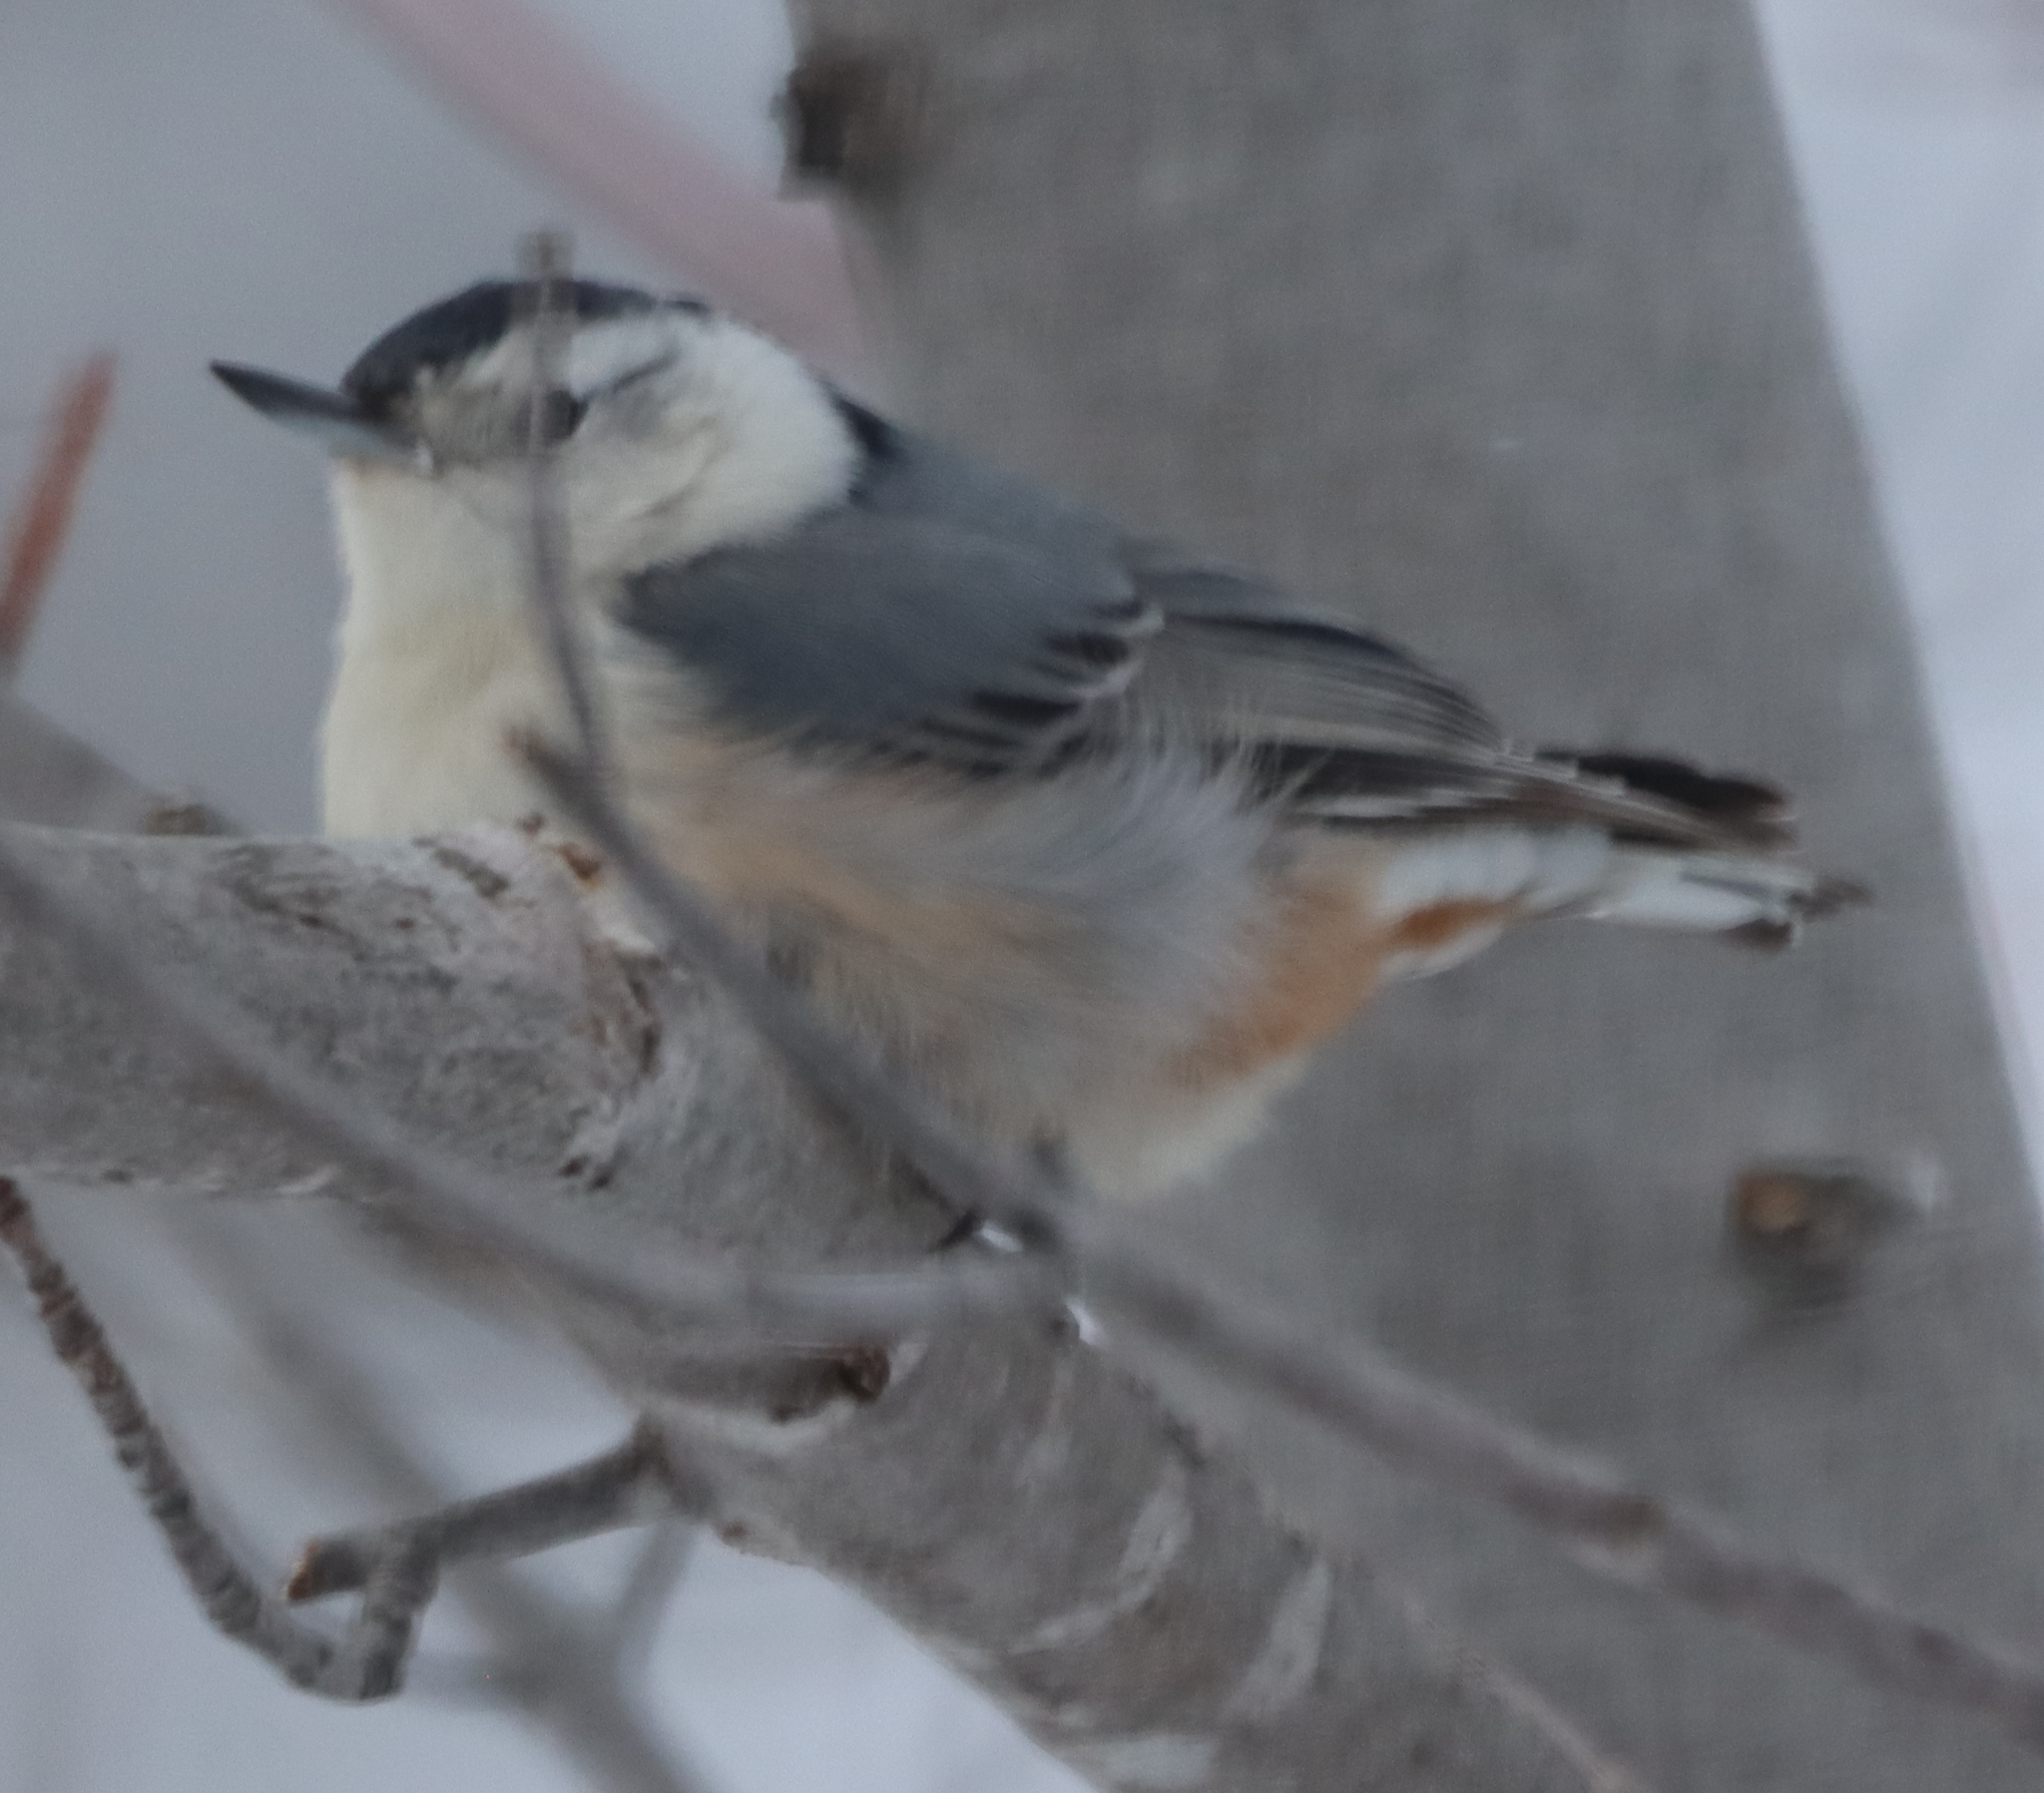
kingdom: Animalia
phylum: Chordata
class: Aves
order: Passeriformes
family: Sittidae
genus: Sitta
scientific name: Sitta carolinensis
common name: White-breasted nuthatch
